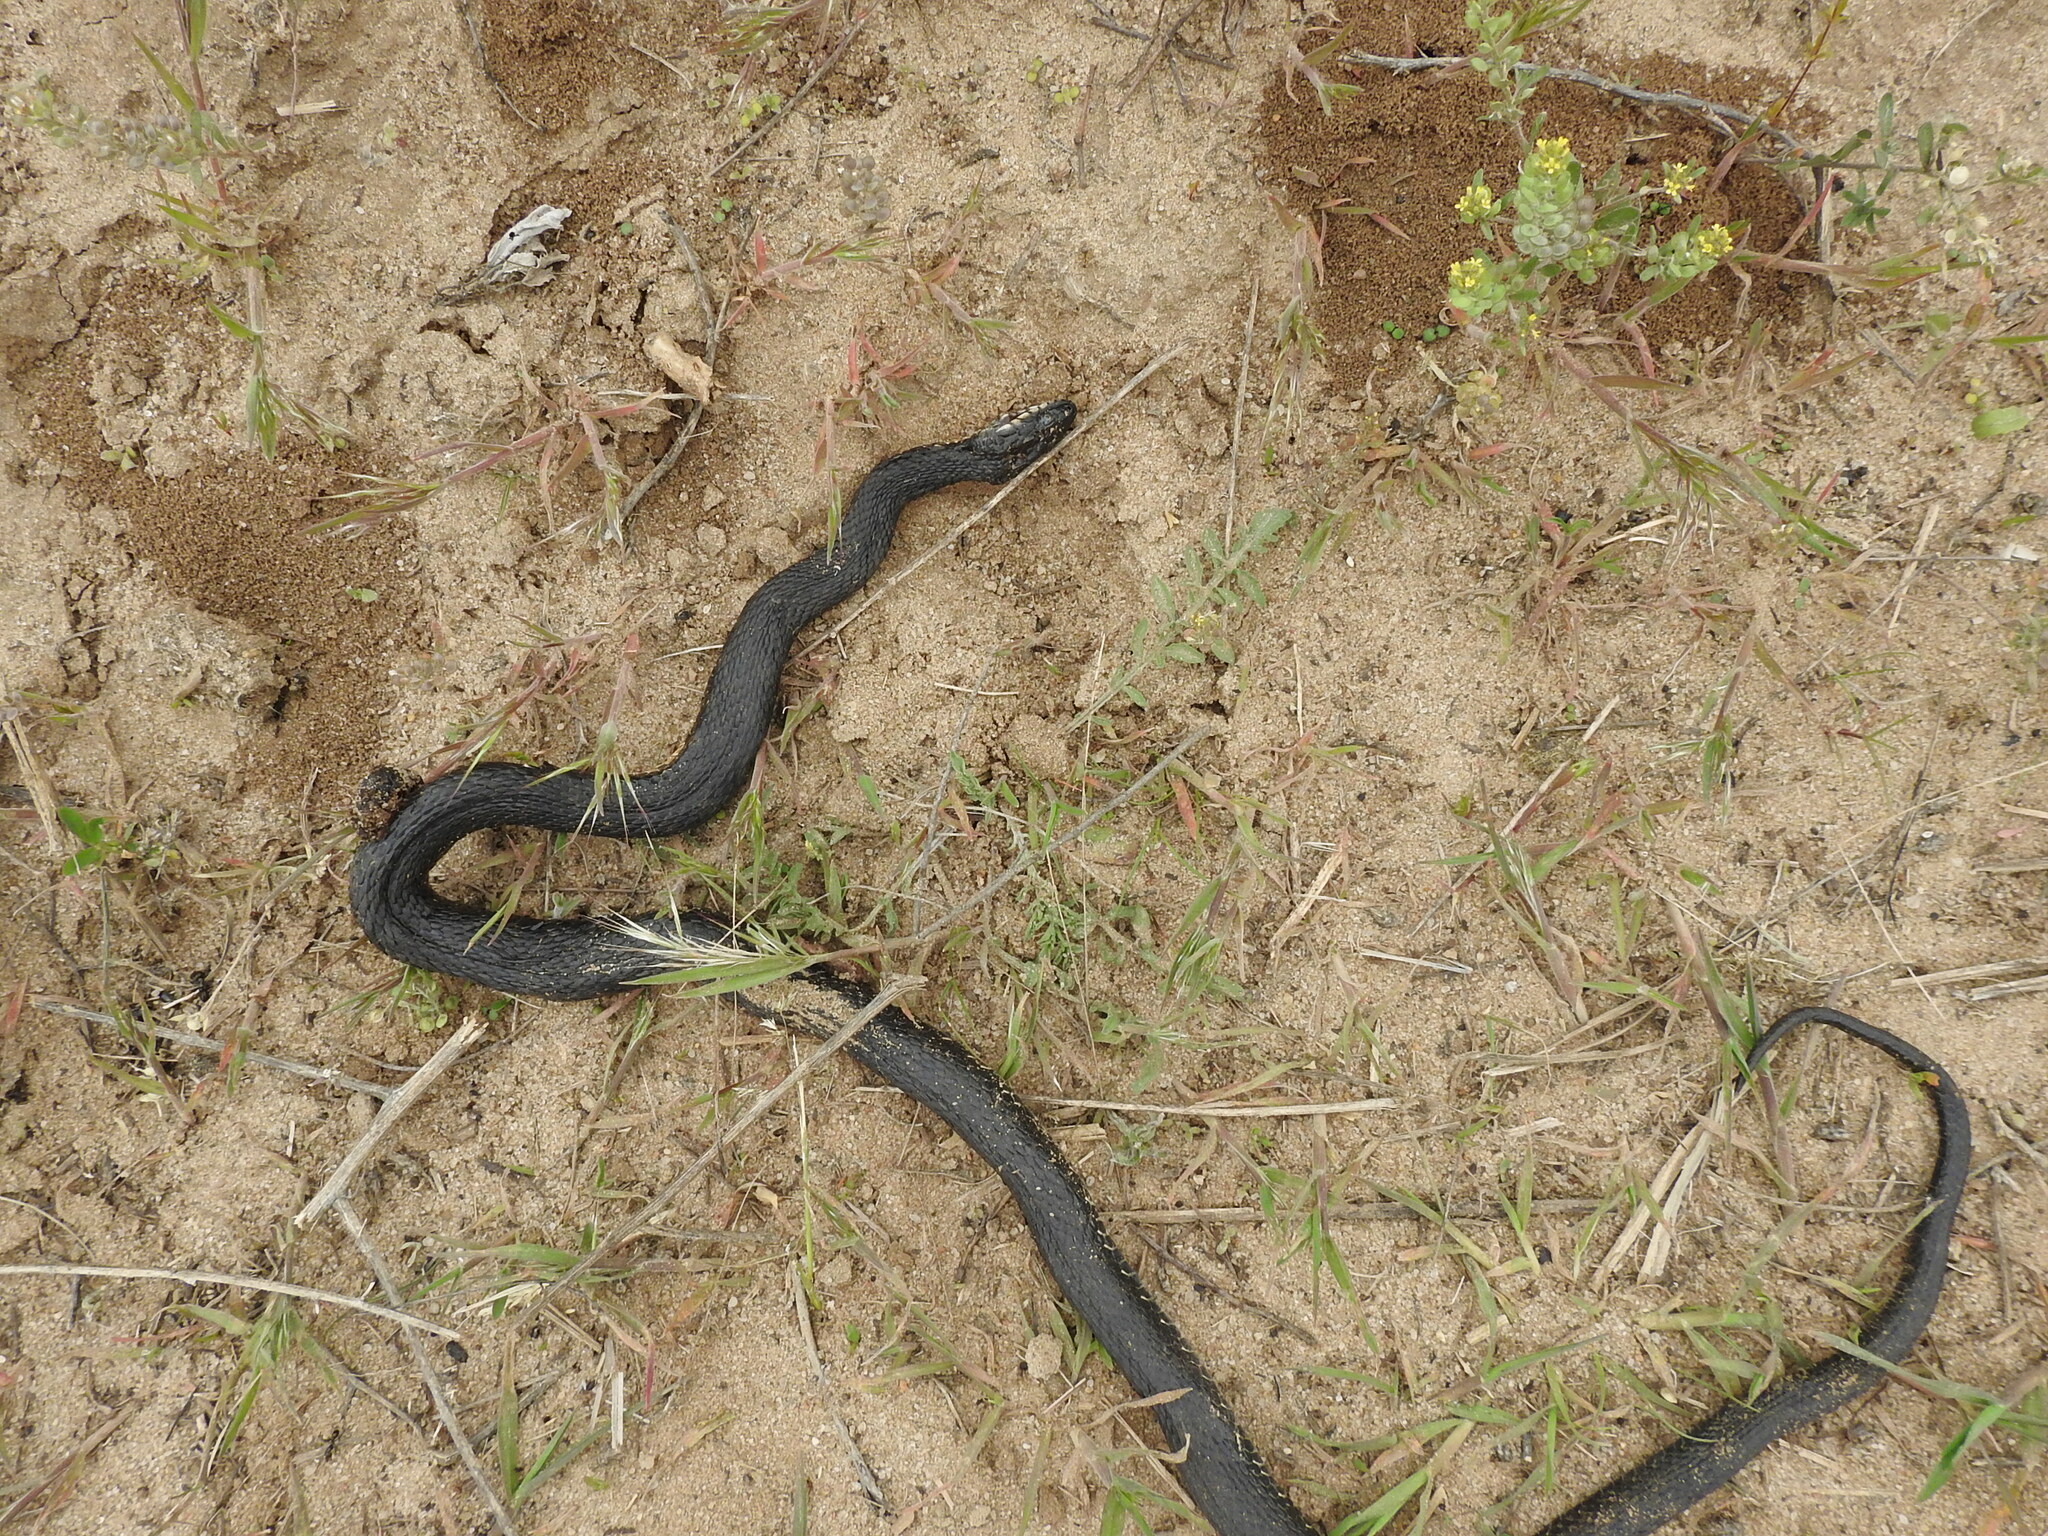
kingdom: Animalia
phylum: Chordata
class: Squamata
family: Colubridae
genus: Natrix
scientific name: Natrix tessellata
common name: Dice snake
